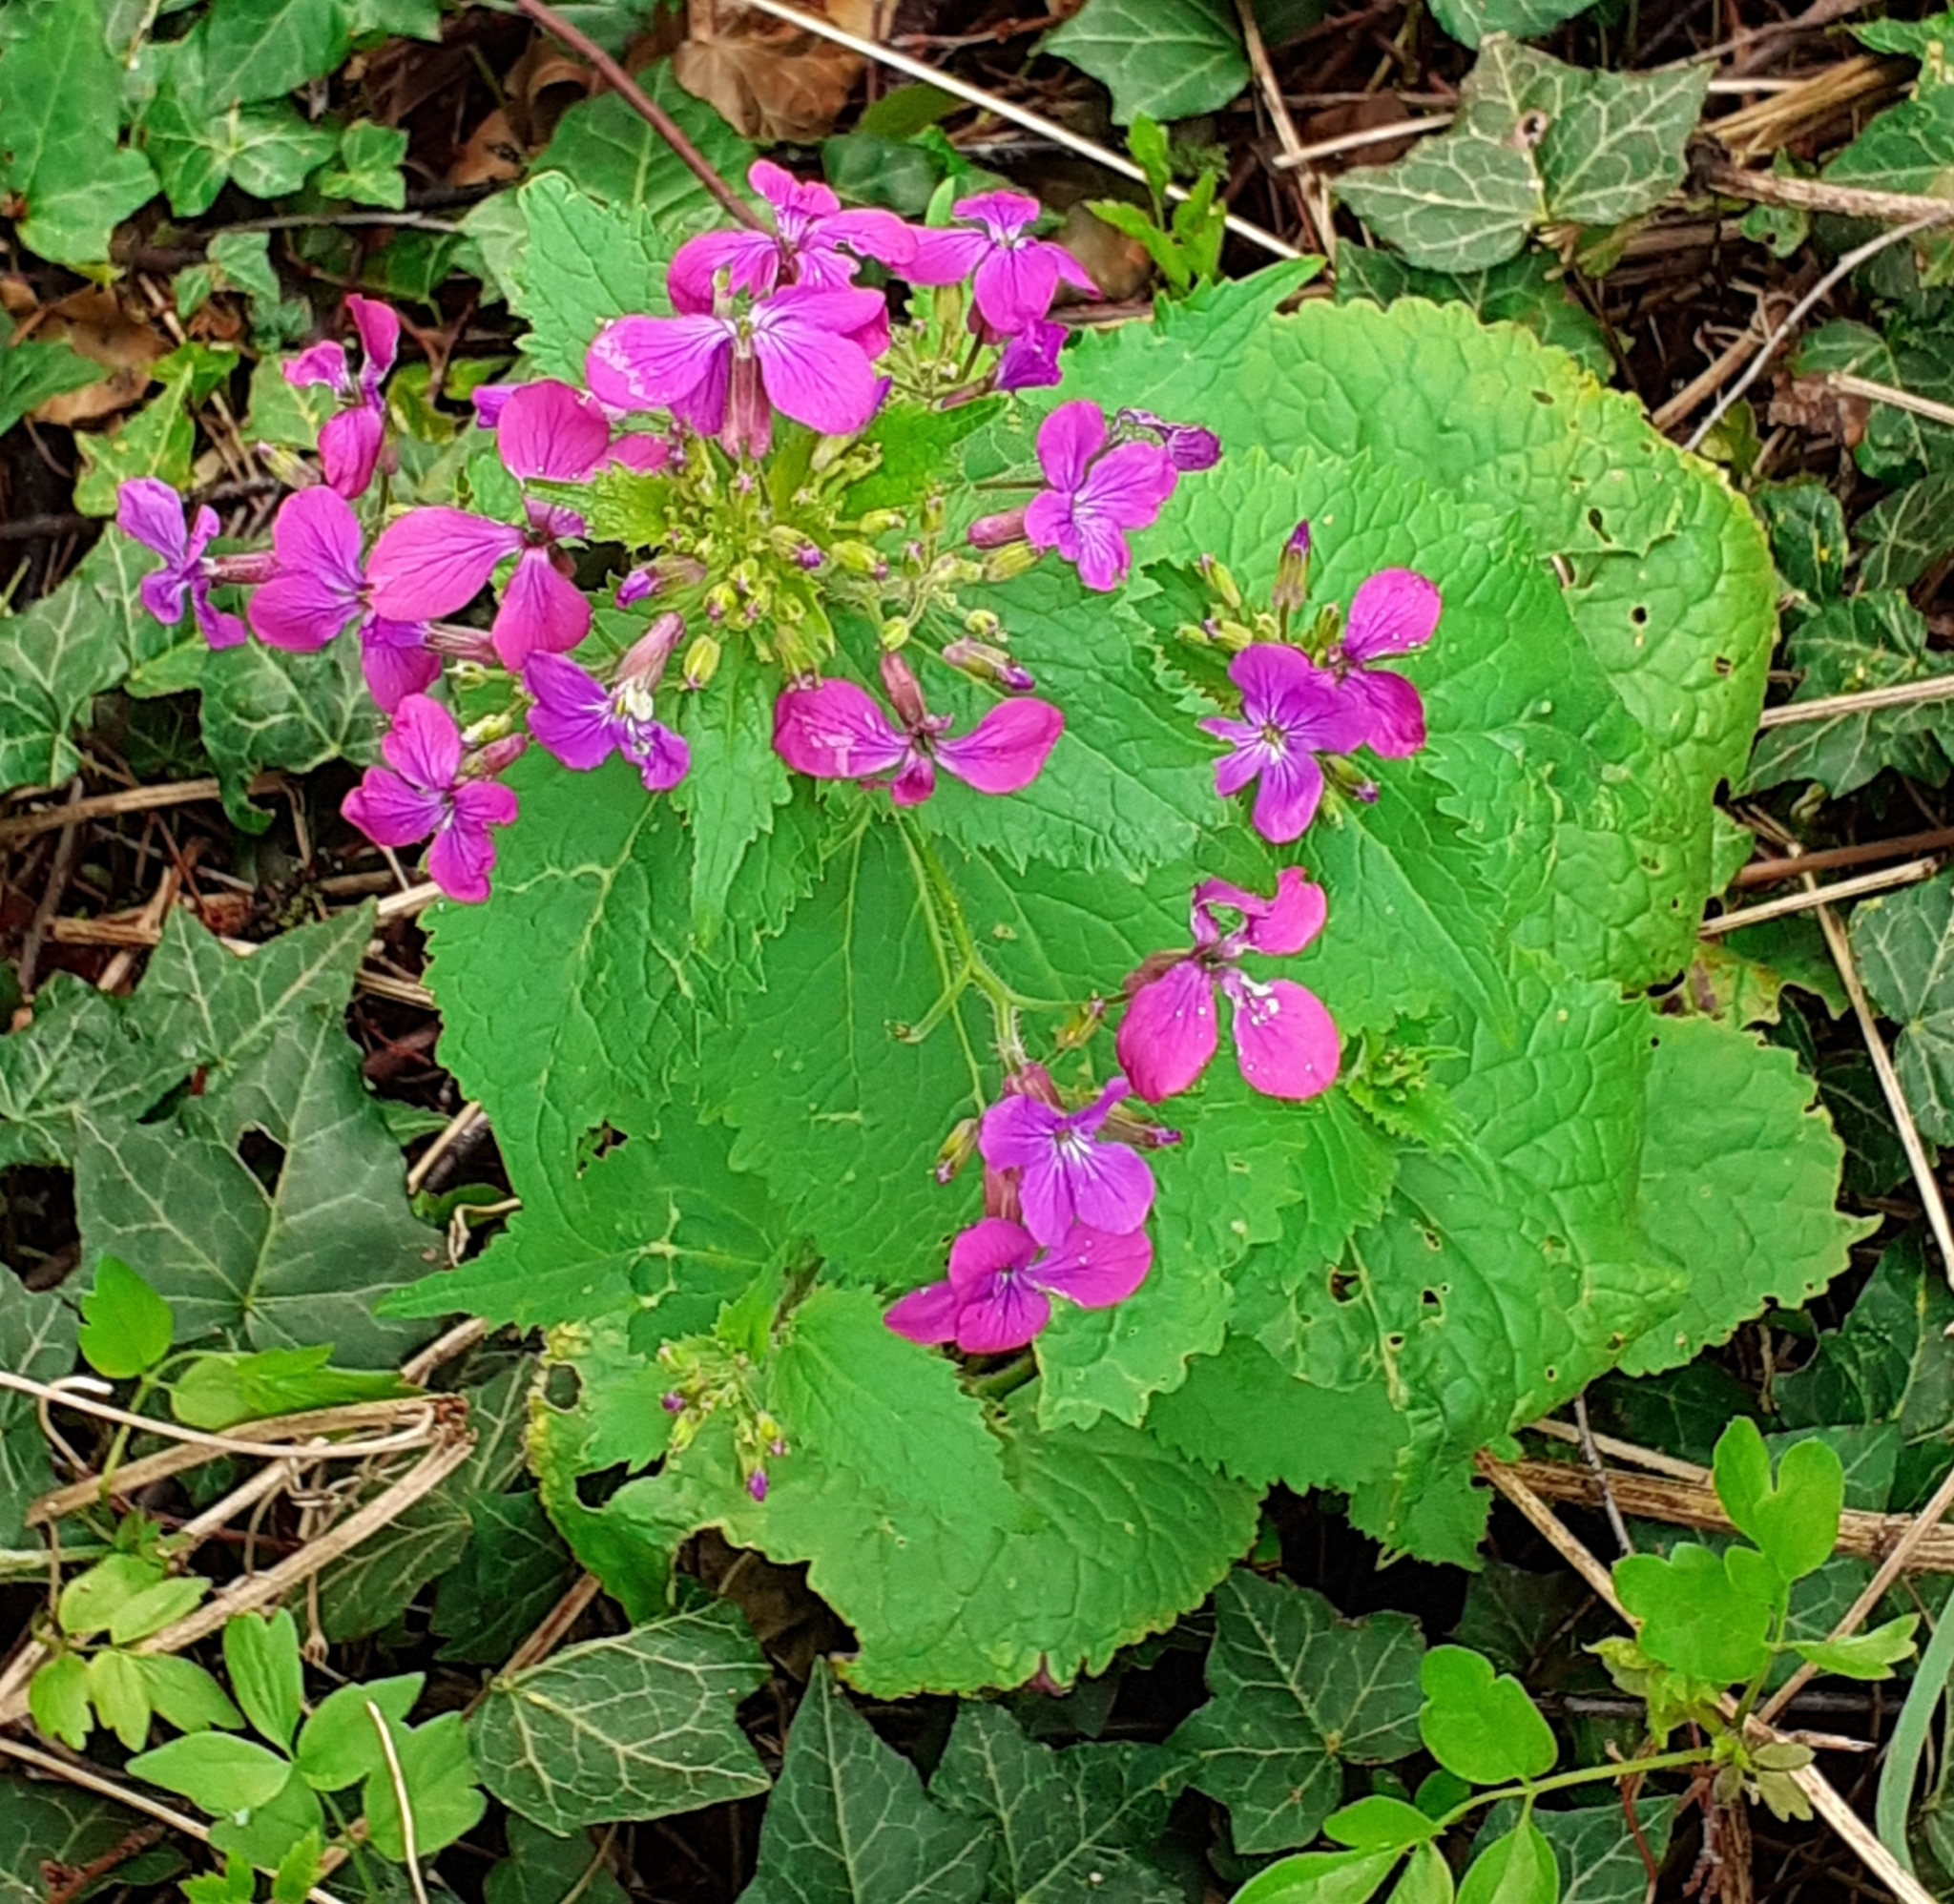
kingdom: Plantae
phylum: Tracheophyta
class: Magnoliopsida
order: Brassicales
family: Brassicaceae
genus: Lunaria
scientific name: Lunaria annua
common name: Honesty
